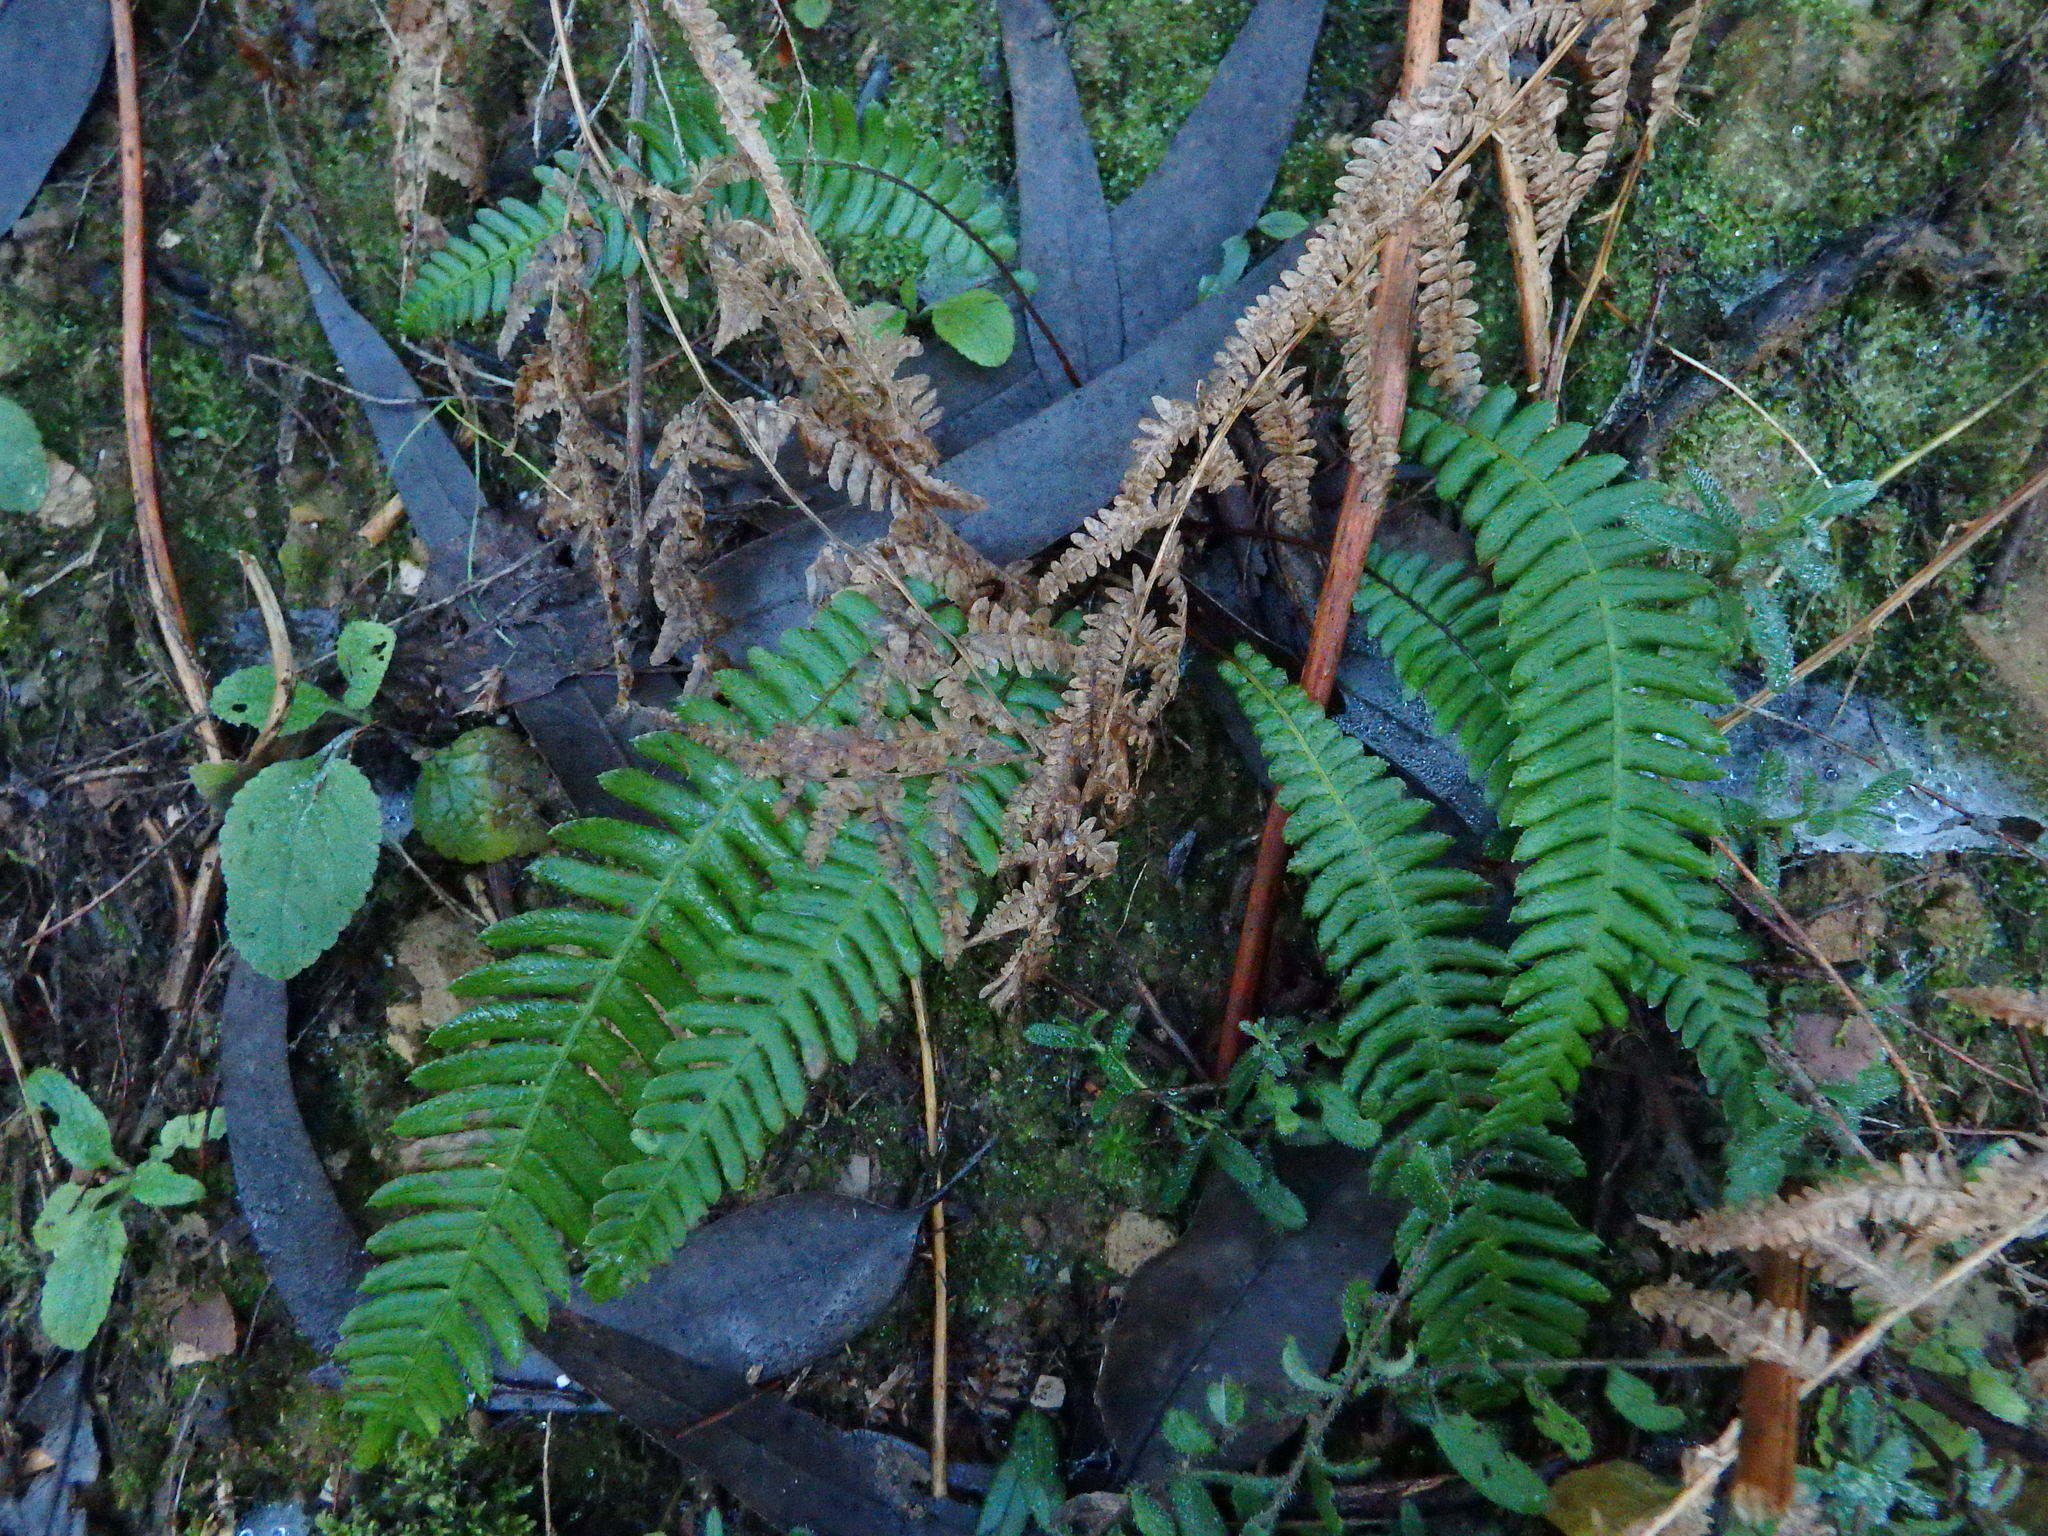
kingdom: Plantae
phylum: Tracheophyta
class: Polypodiopsida
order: Polypodiales
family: Blechnaceae
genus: Struthiopteris
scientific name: Struthiopteris spicant
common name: Deer fern
